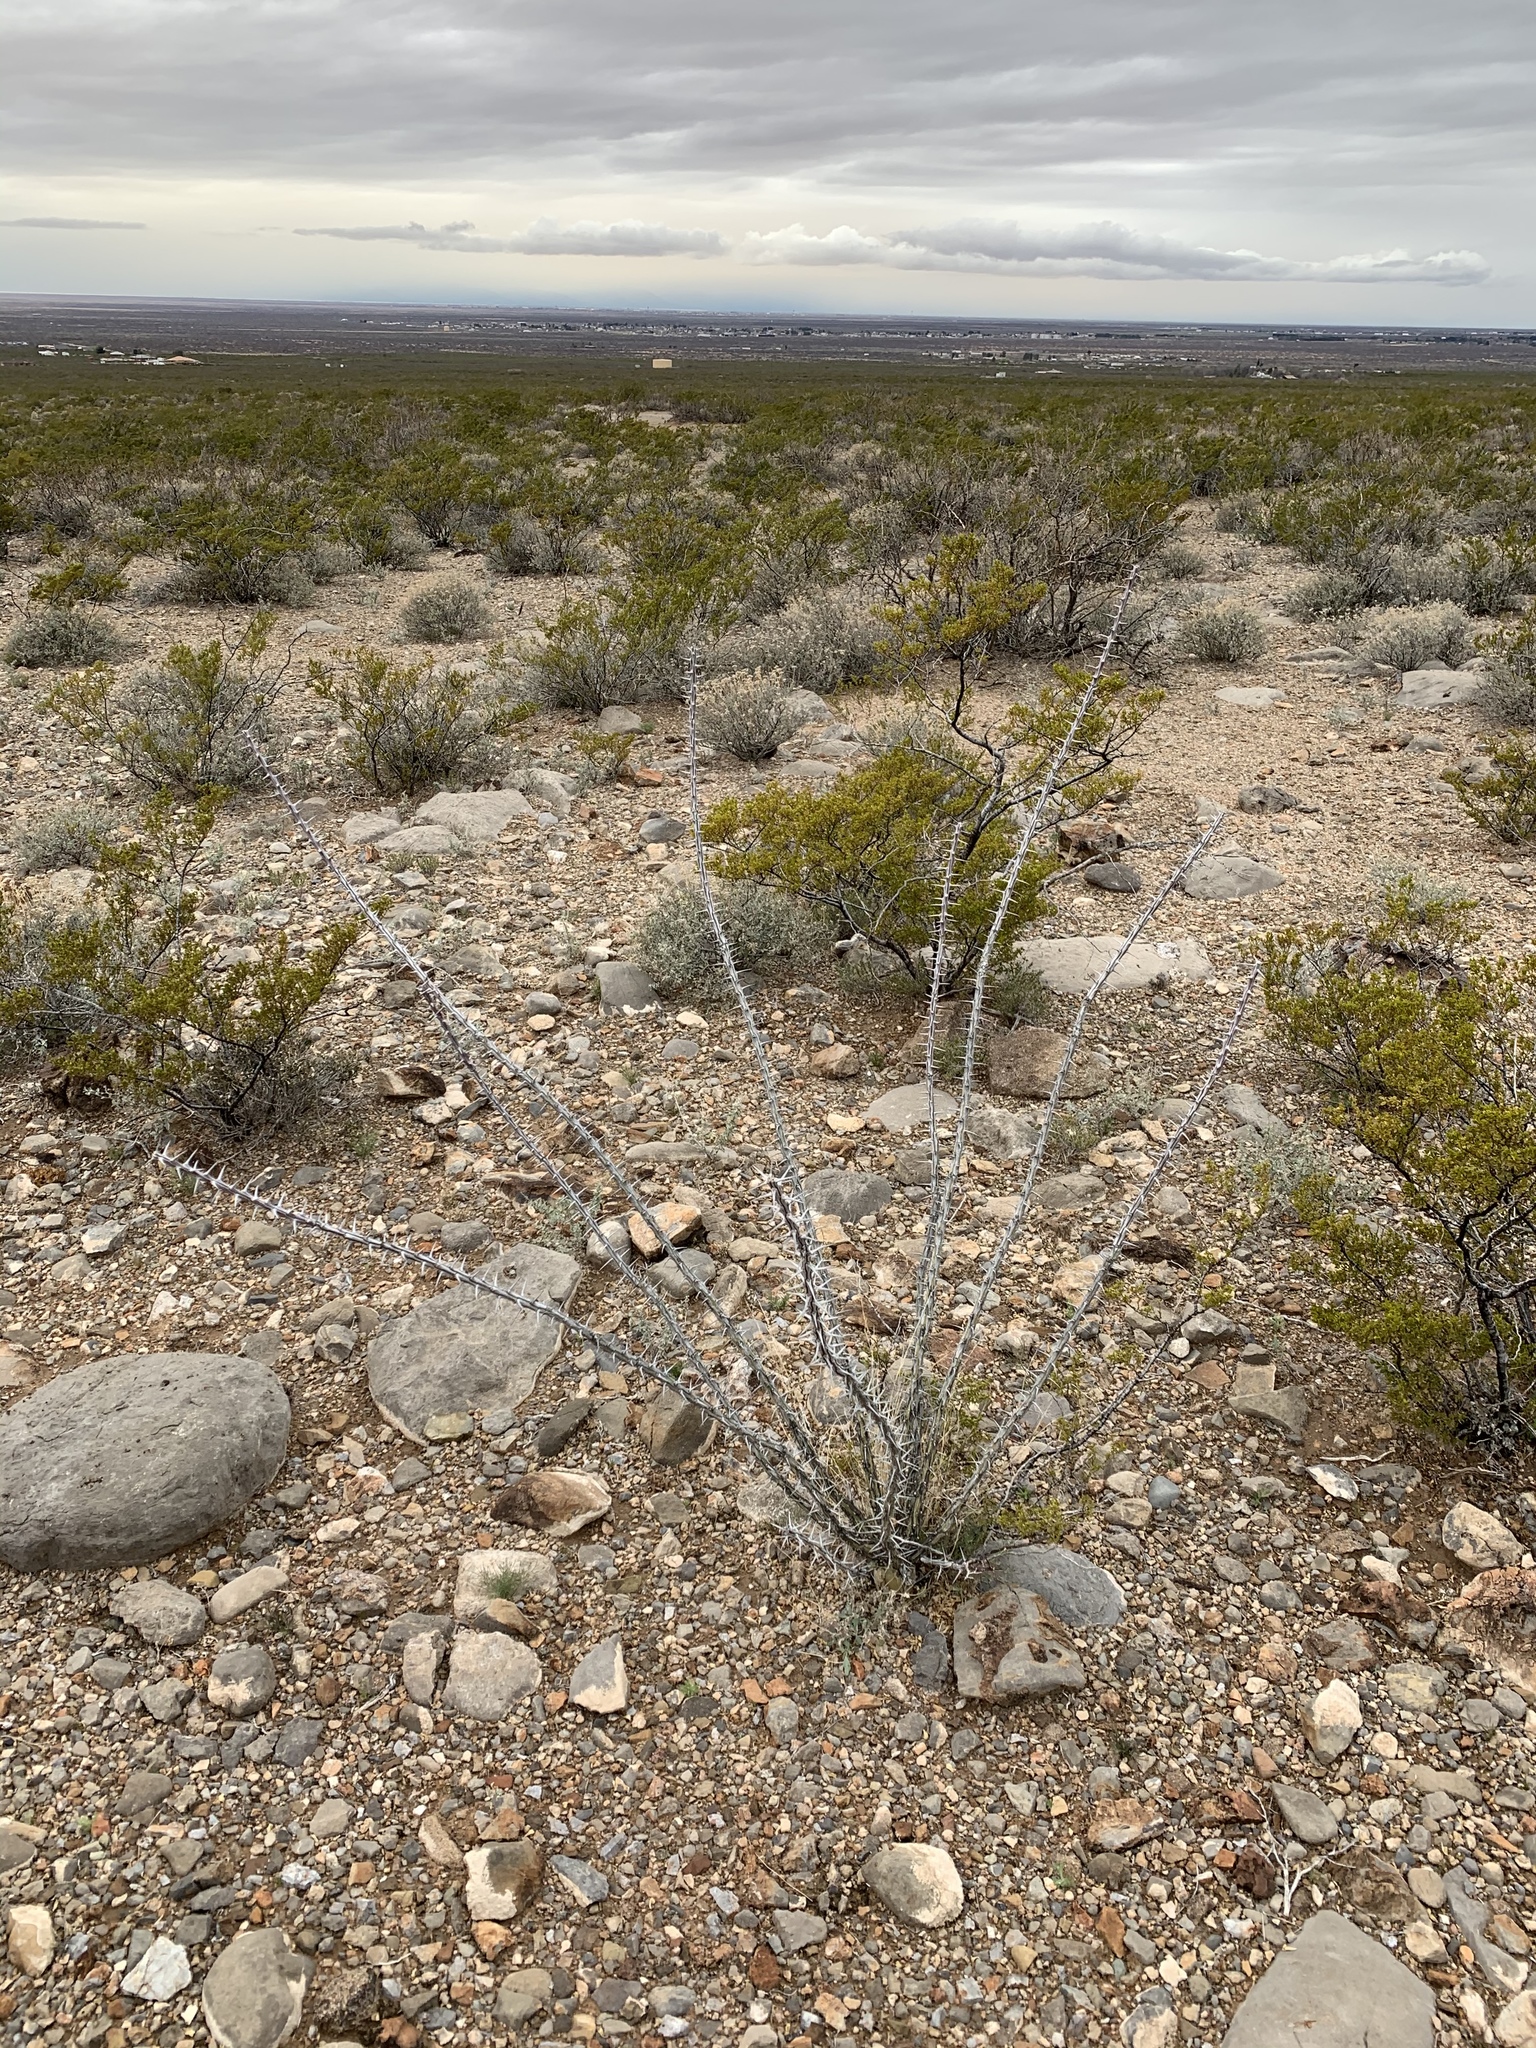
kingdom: Plantae
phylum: Tracheophyta
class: Magnoliopsida
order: Ericales
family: Fouquieriaceae
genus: Fouquieria
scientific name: Fouquieria splendens
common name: Vine-cactus
